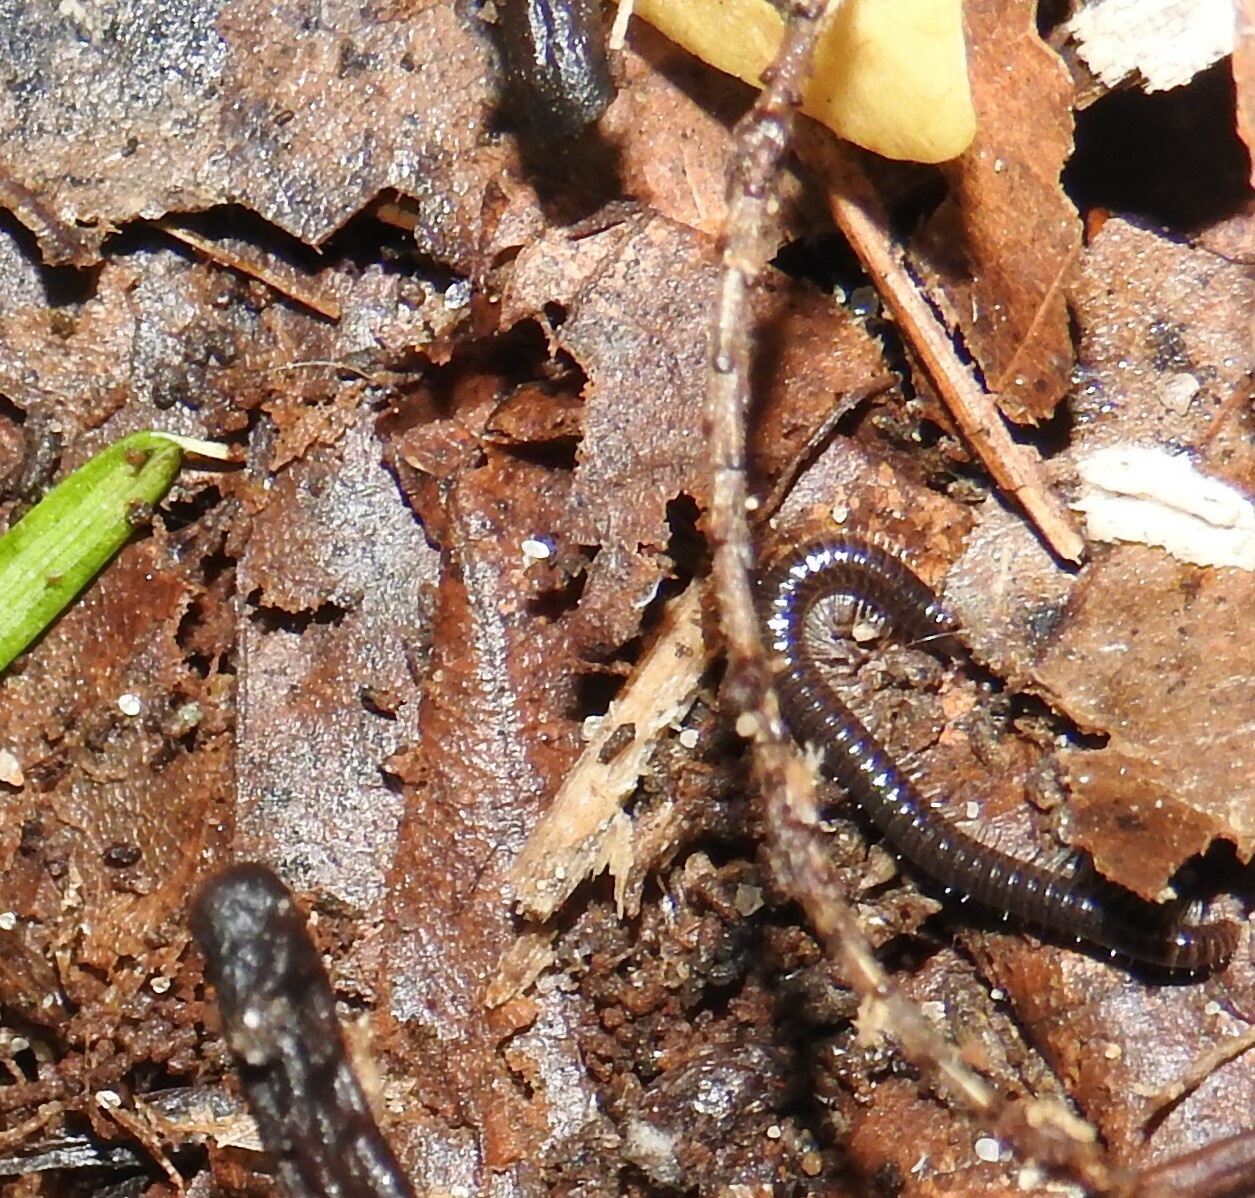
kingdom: Animalia
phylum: Arthropoda
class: Diplopoda
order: Julida
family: Julidae
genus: Ophyiulus
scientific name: Ophyiulus pilosus
